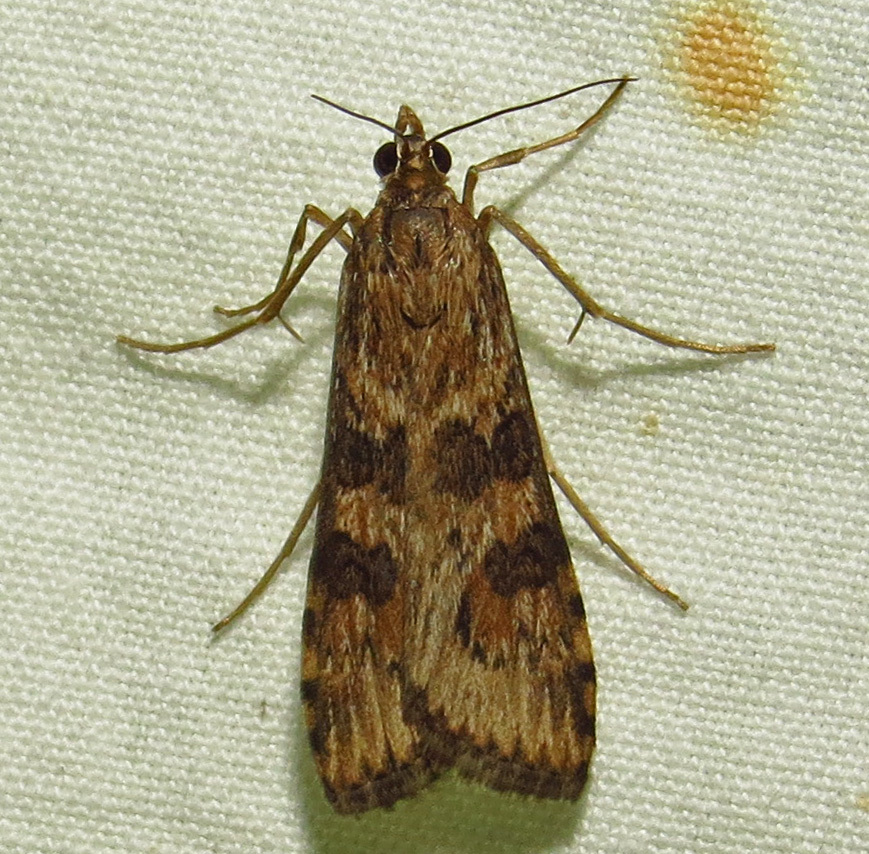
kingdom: Animalia
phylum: Arthropoda
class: Insecta
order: Lepidoptera
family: Crambidae
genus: Nomophila
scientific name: Nomophila nearctica
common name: American rush veneer
